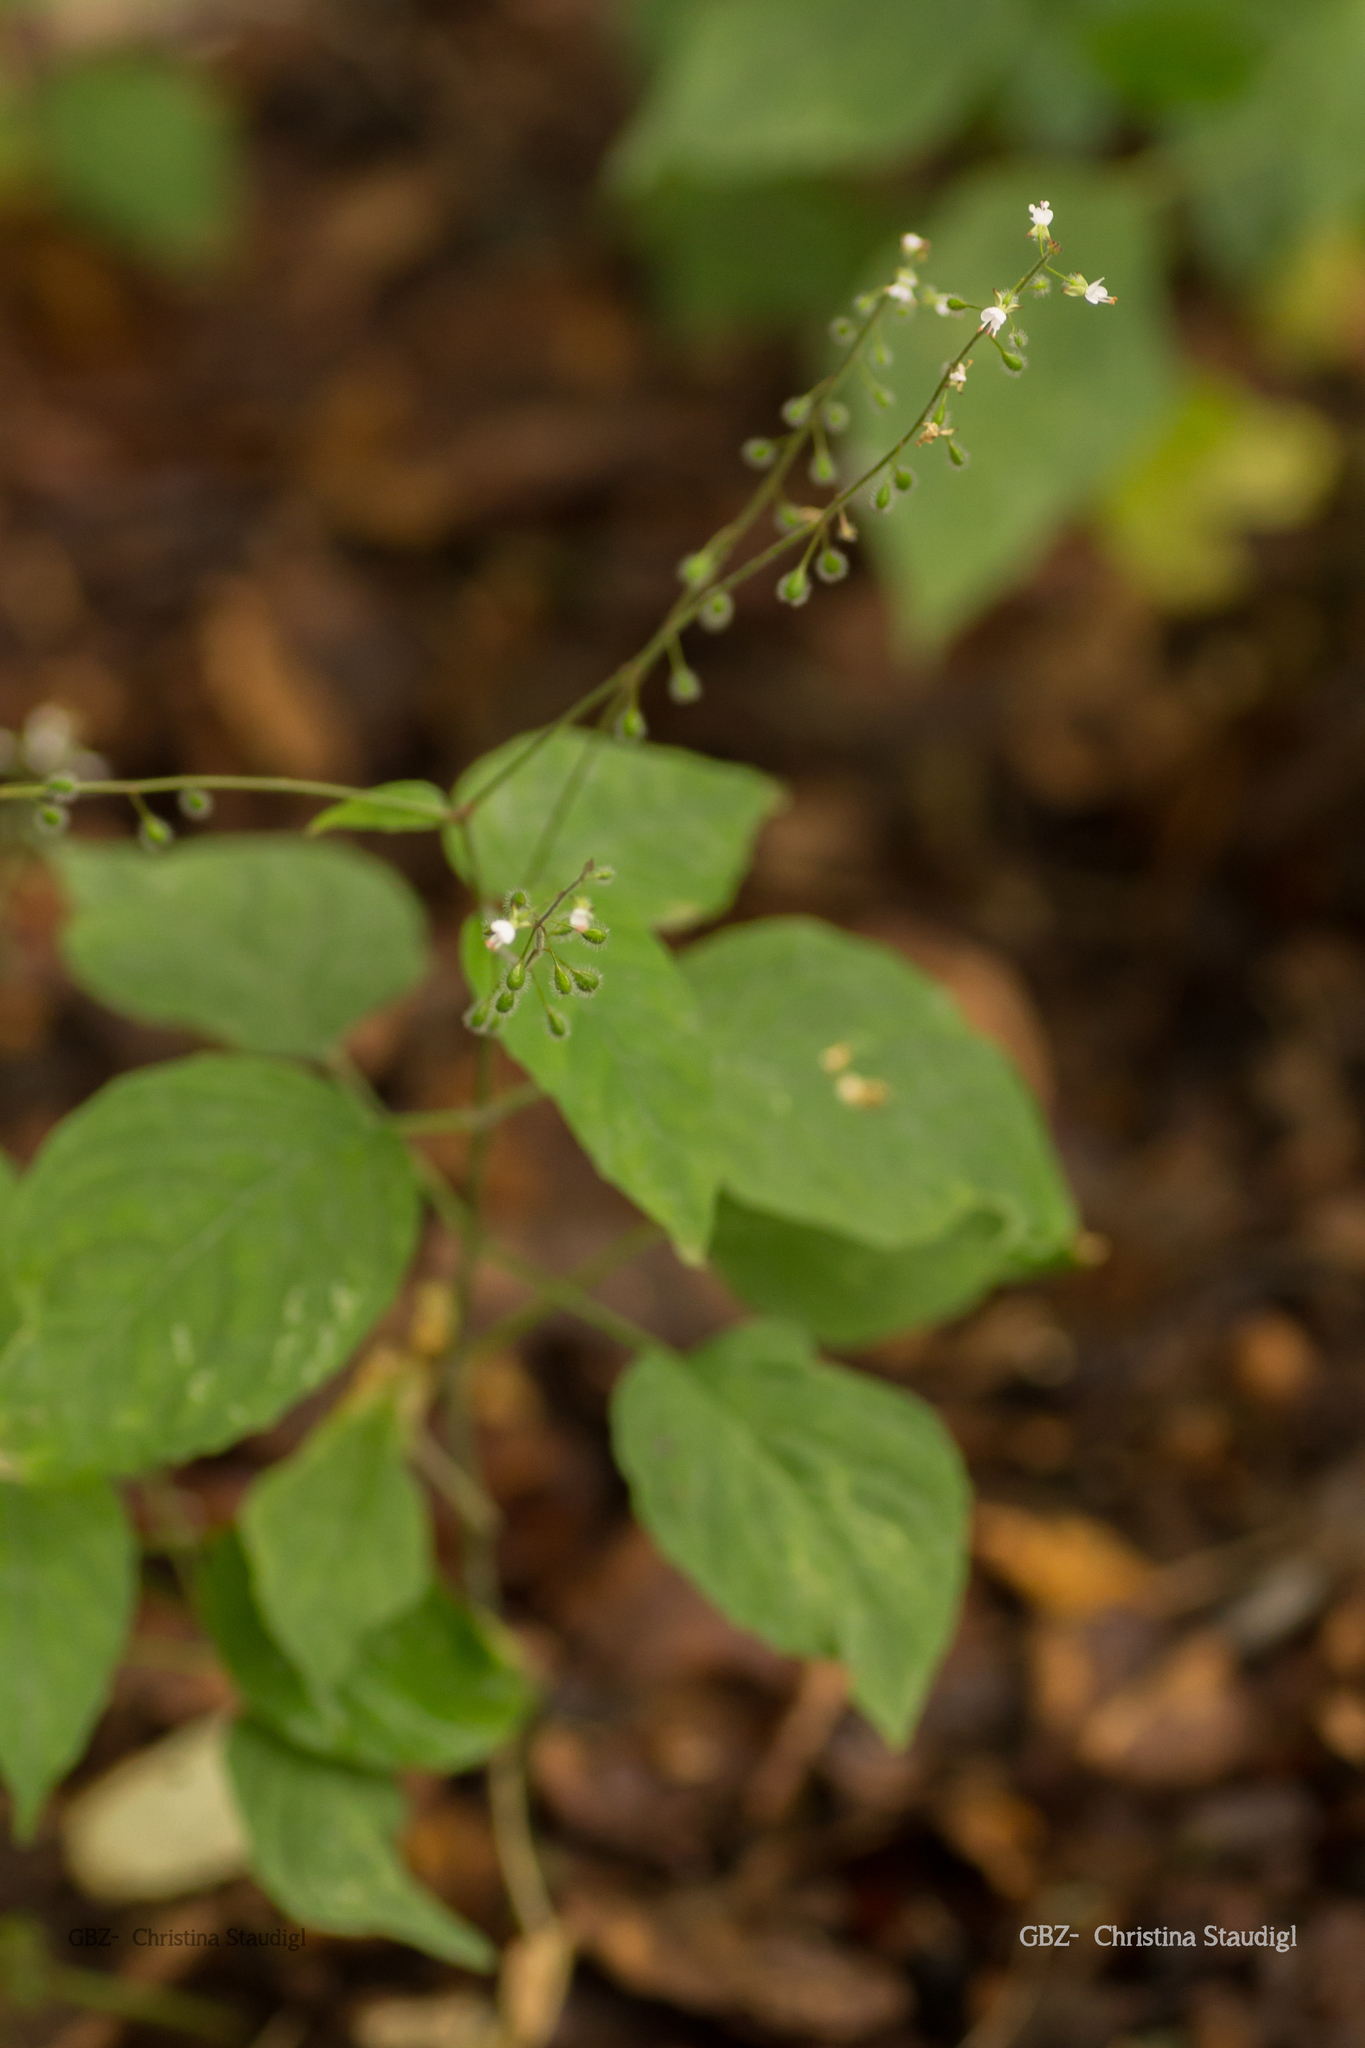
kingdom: Plantae
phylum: Tracheophyta
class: Magnoliopsida
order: Myrtales
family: Onagraceae
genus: Circaea
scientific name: Circaea lutetiana
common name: Enchanter's-nightshade
